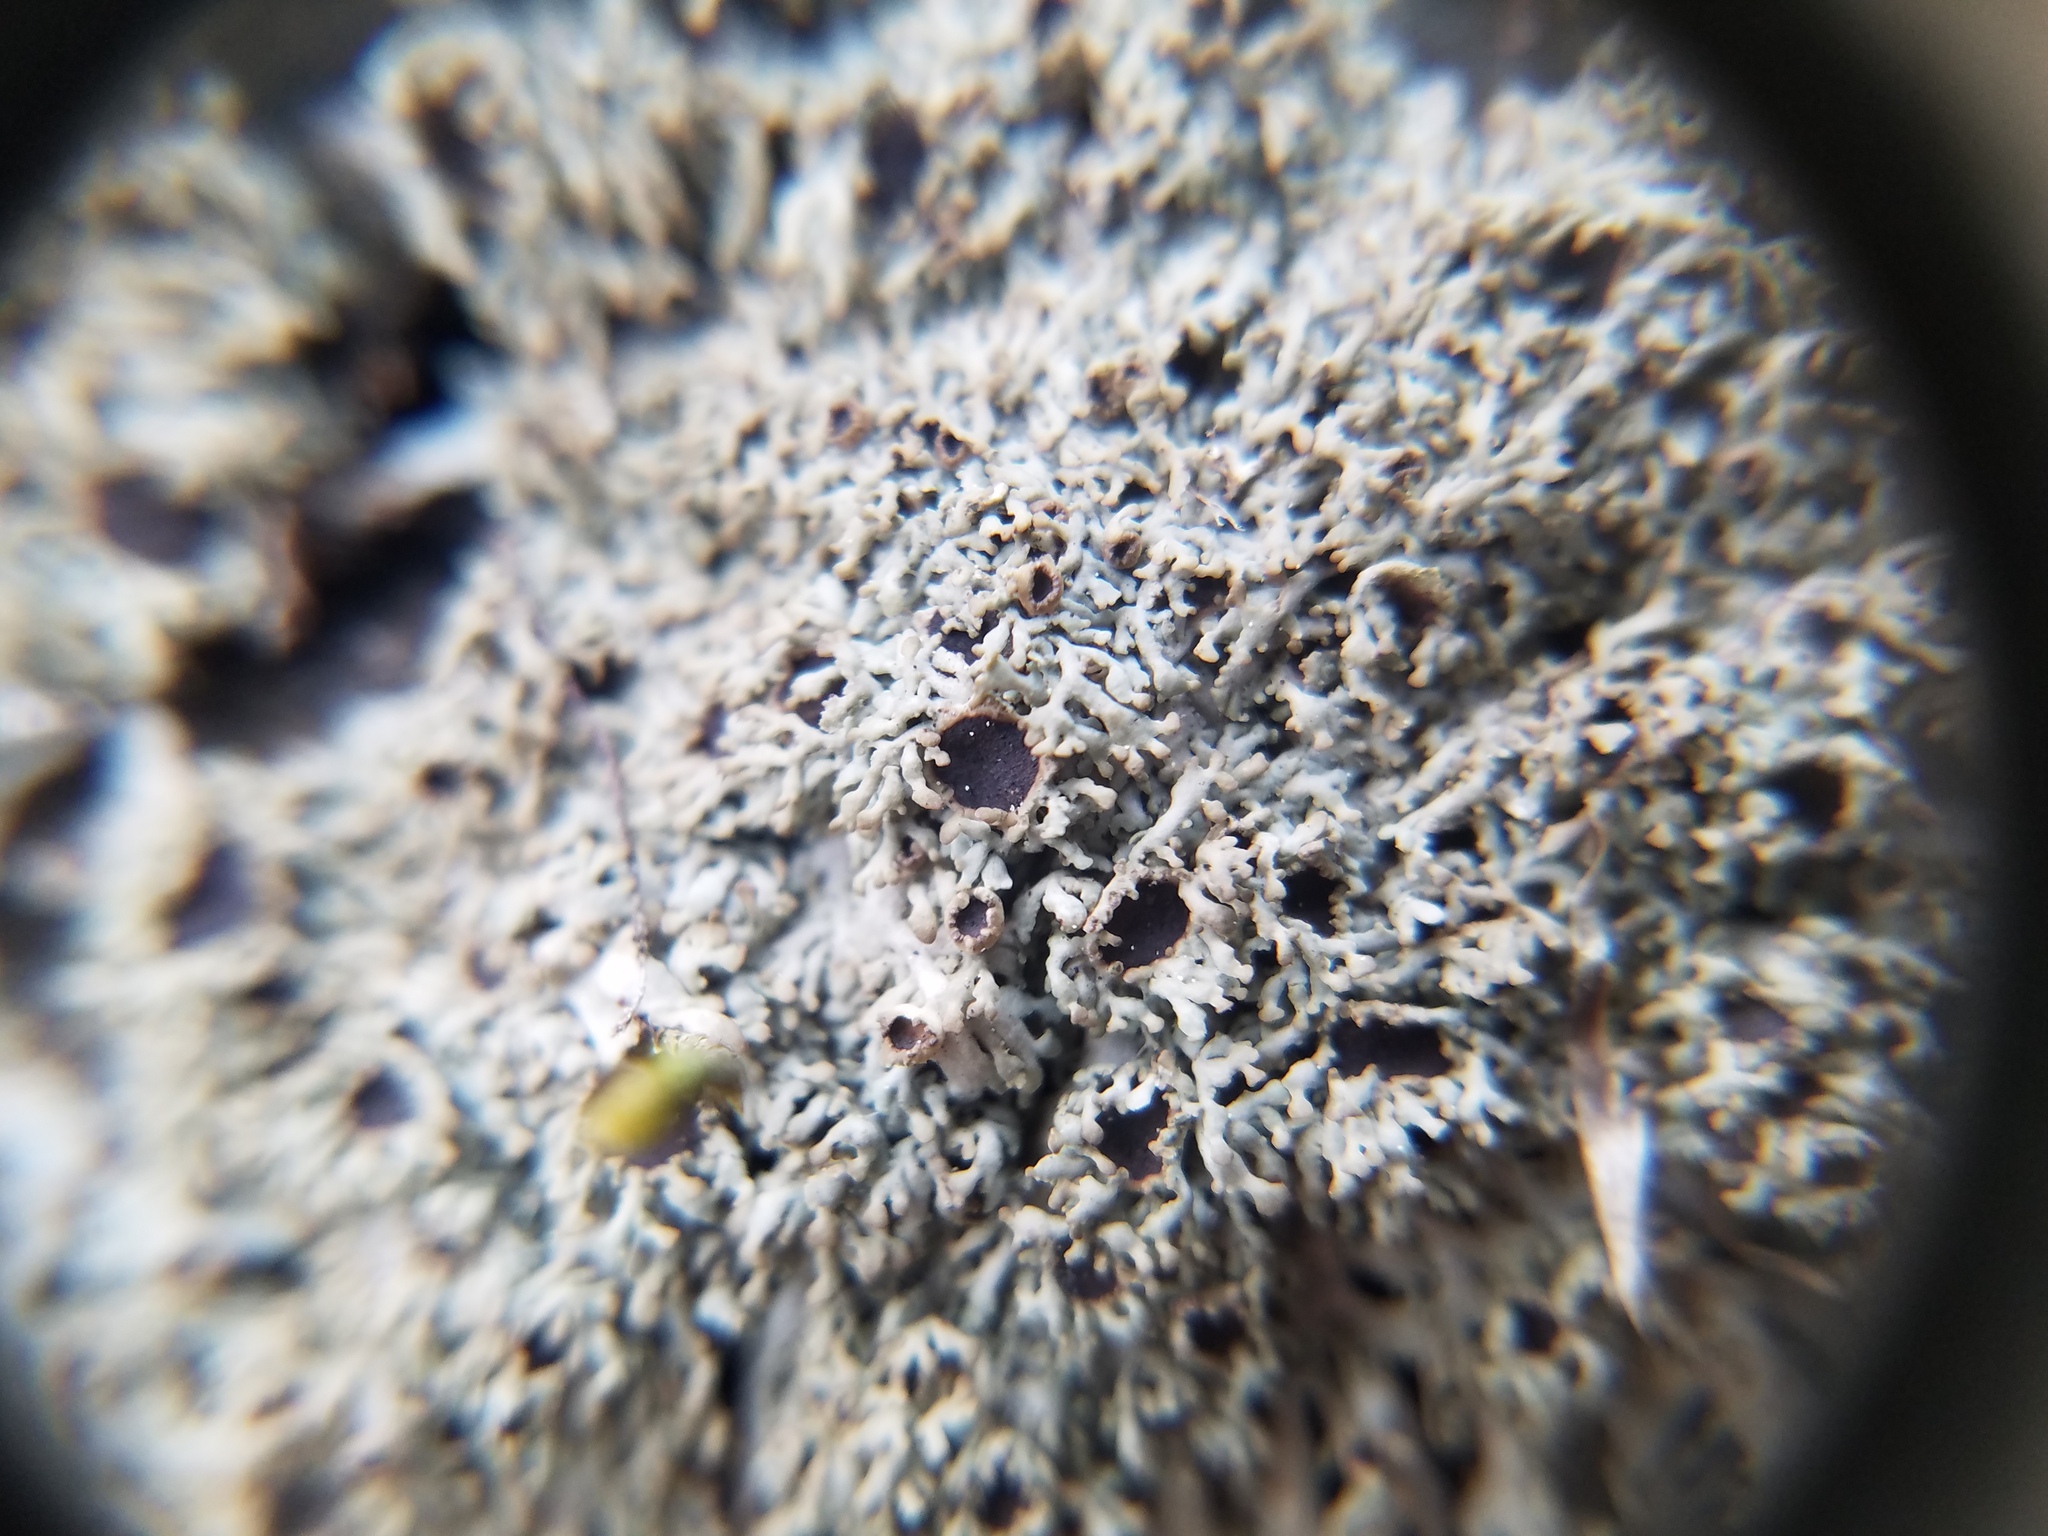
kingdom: Fungi
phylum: Ascomycota
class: Lecanoromycetes
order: Caliciales
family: Physciaceae
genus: Kurokawia
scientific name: Kurokawia palmulata
